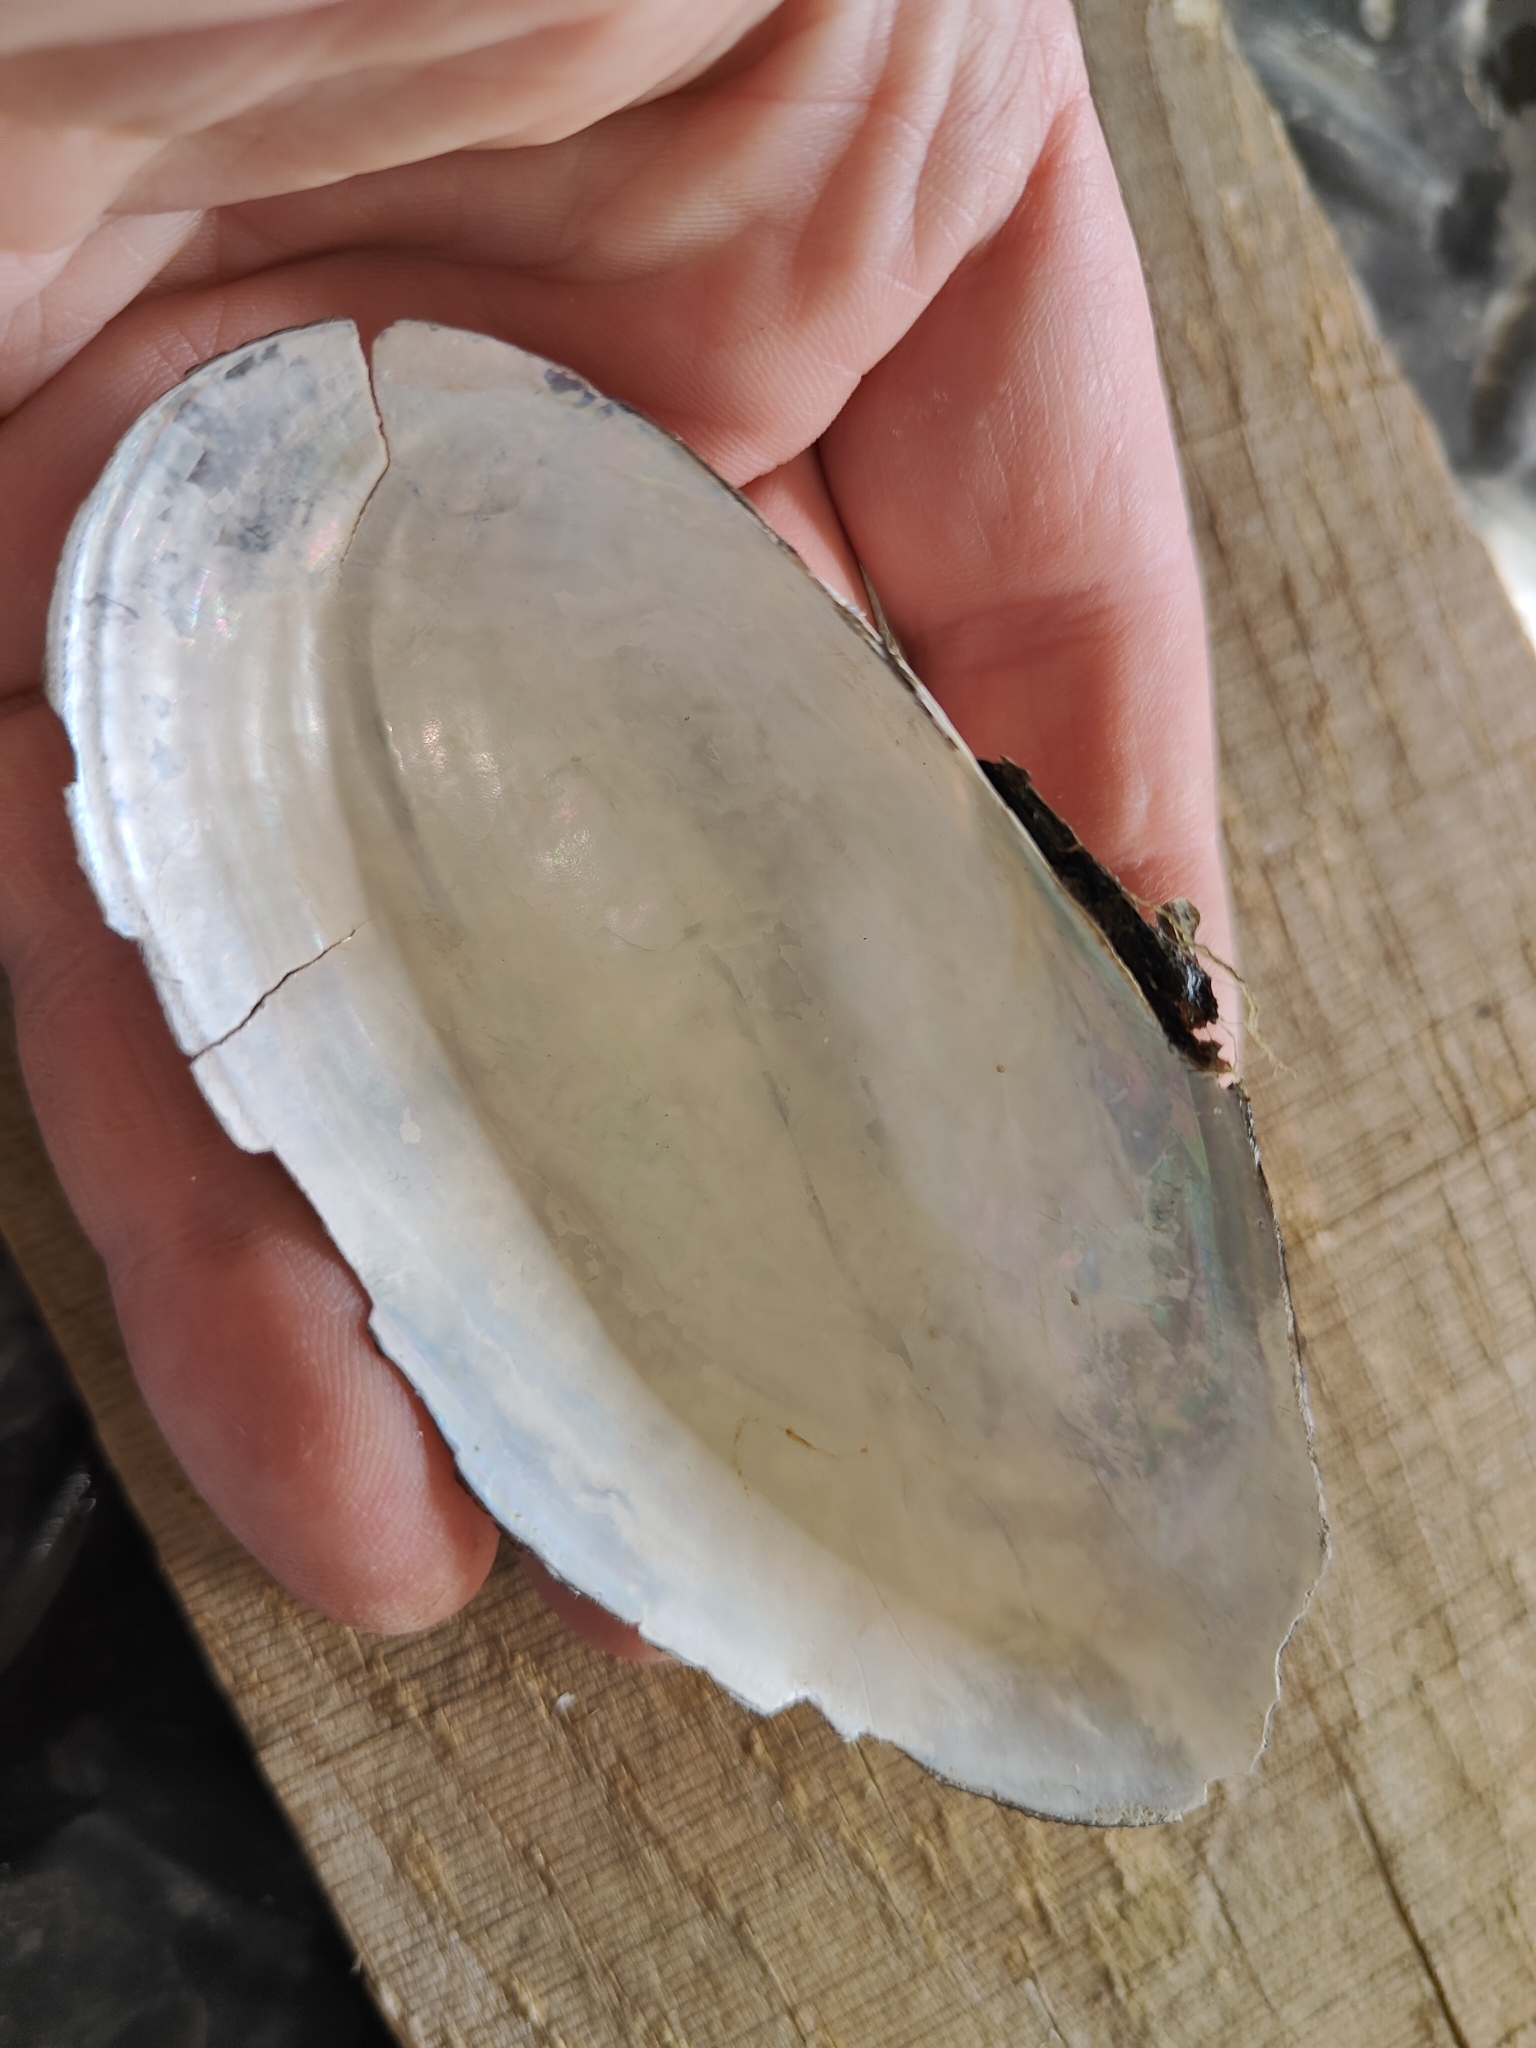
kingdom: Animalia
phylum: Mollusca
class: Bivalvia
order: Unionida
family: Unionidae
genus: Utterbackia
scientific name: Utterbackia imbecillis
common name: Paper pondshell
